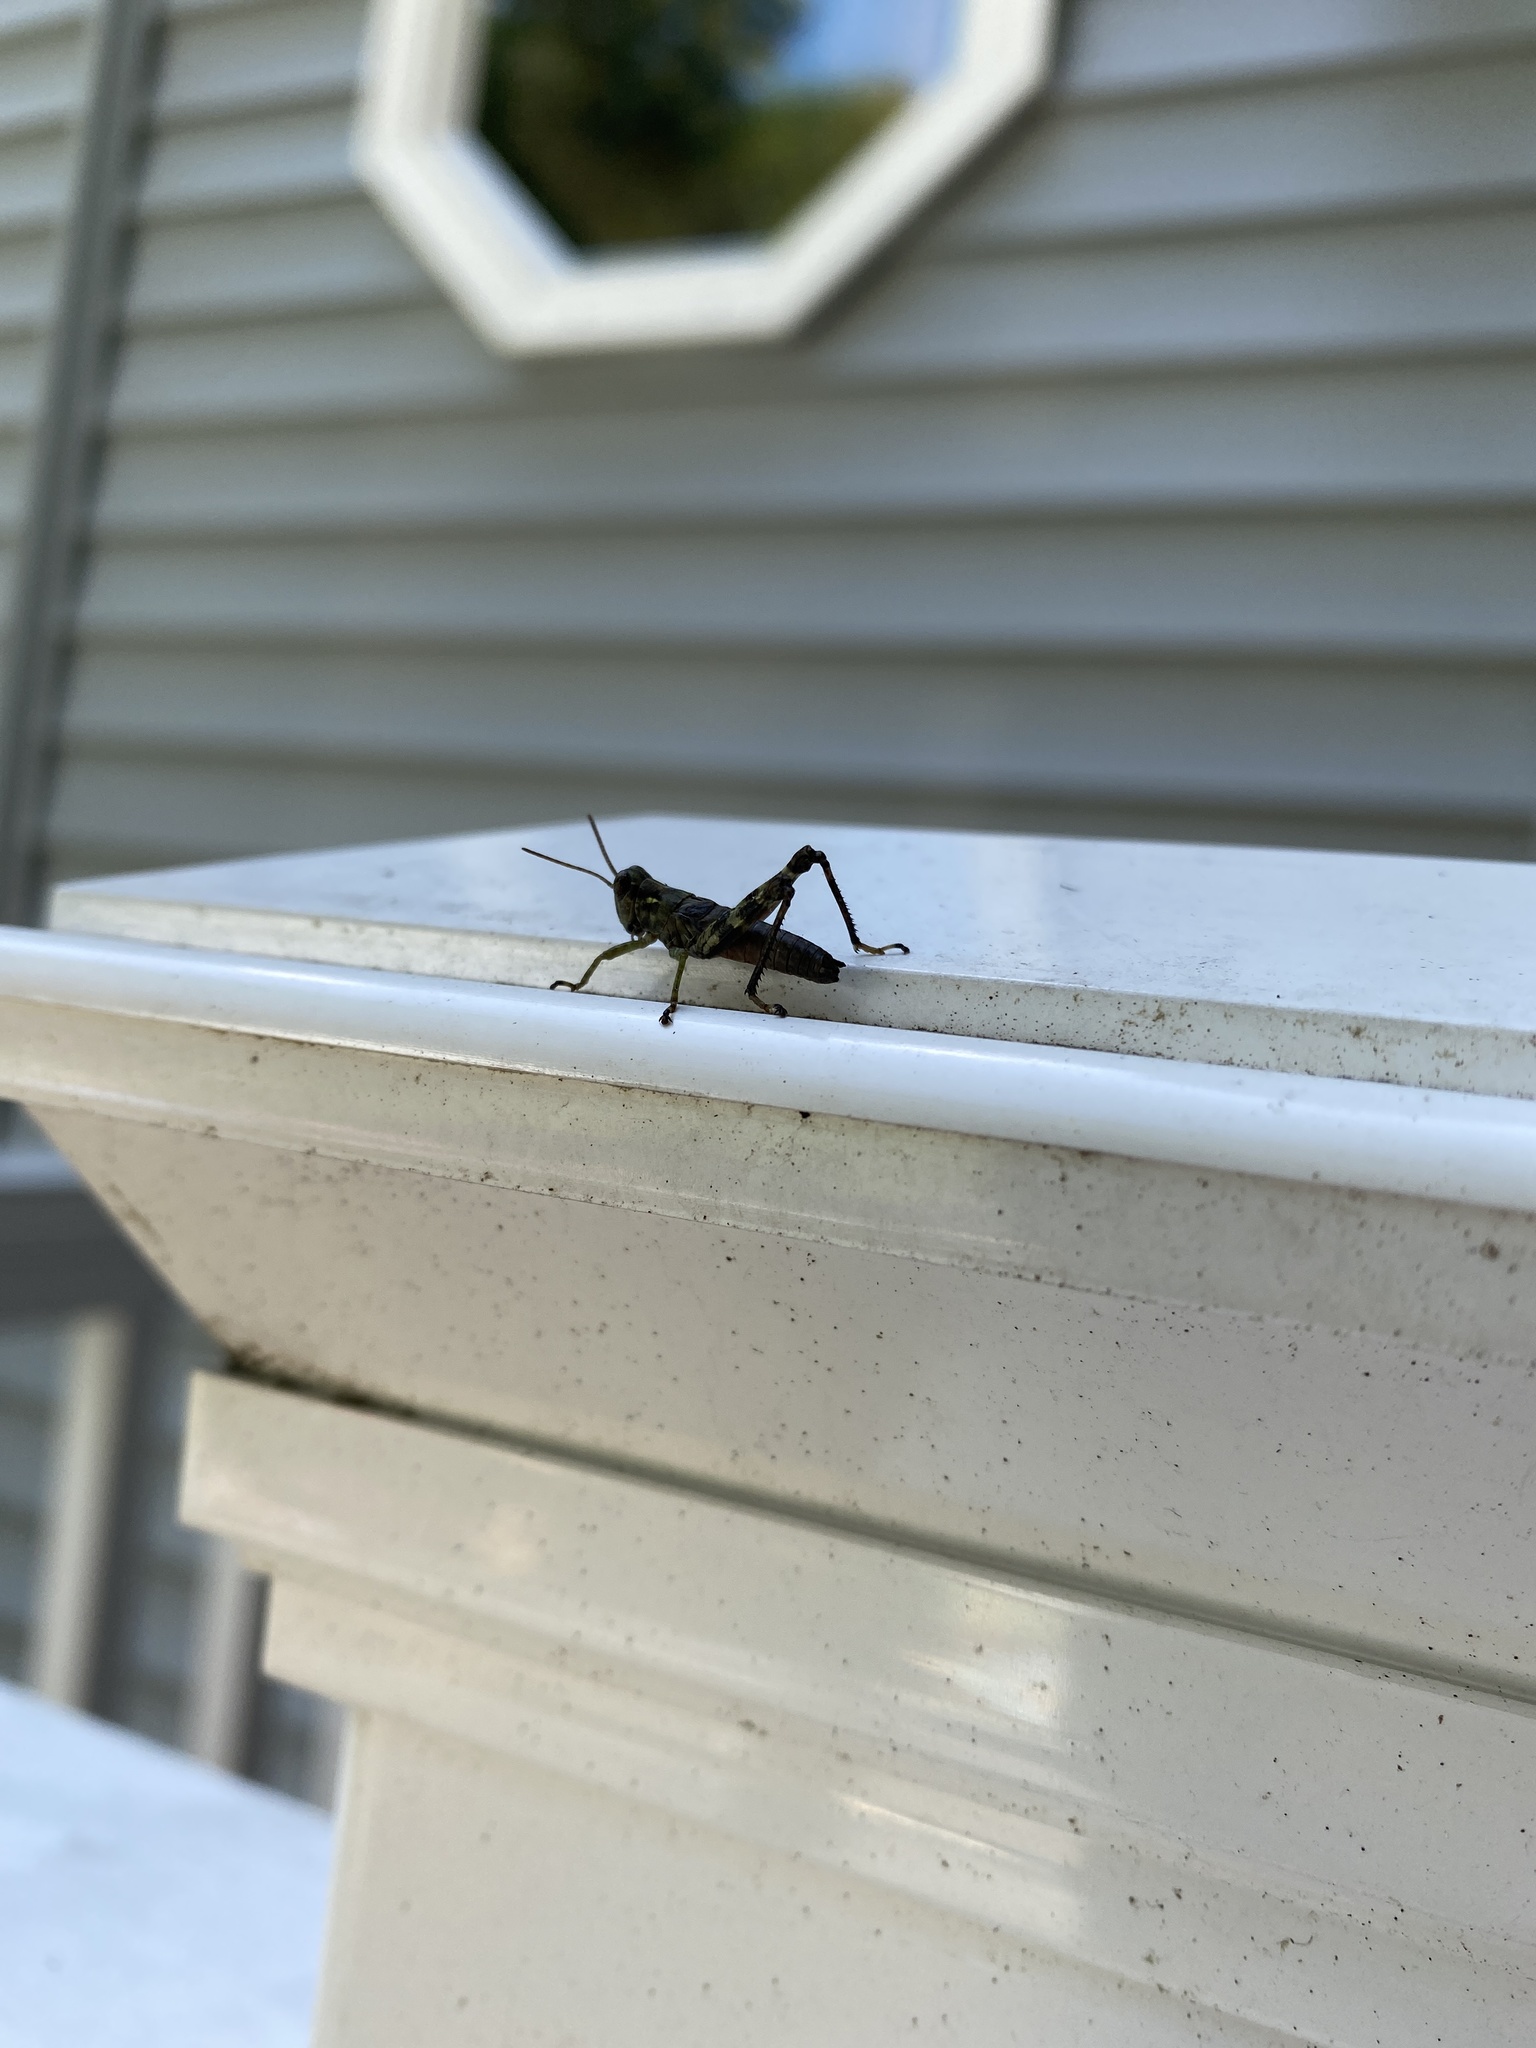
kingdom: Animalia
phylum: Arthropoda
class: Insecta
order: Orthoptera
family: Acrididae
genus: Melanoplus
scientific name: Melanoplus punctulatus
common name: Pine-tree spur-throat grasshopper
